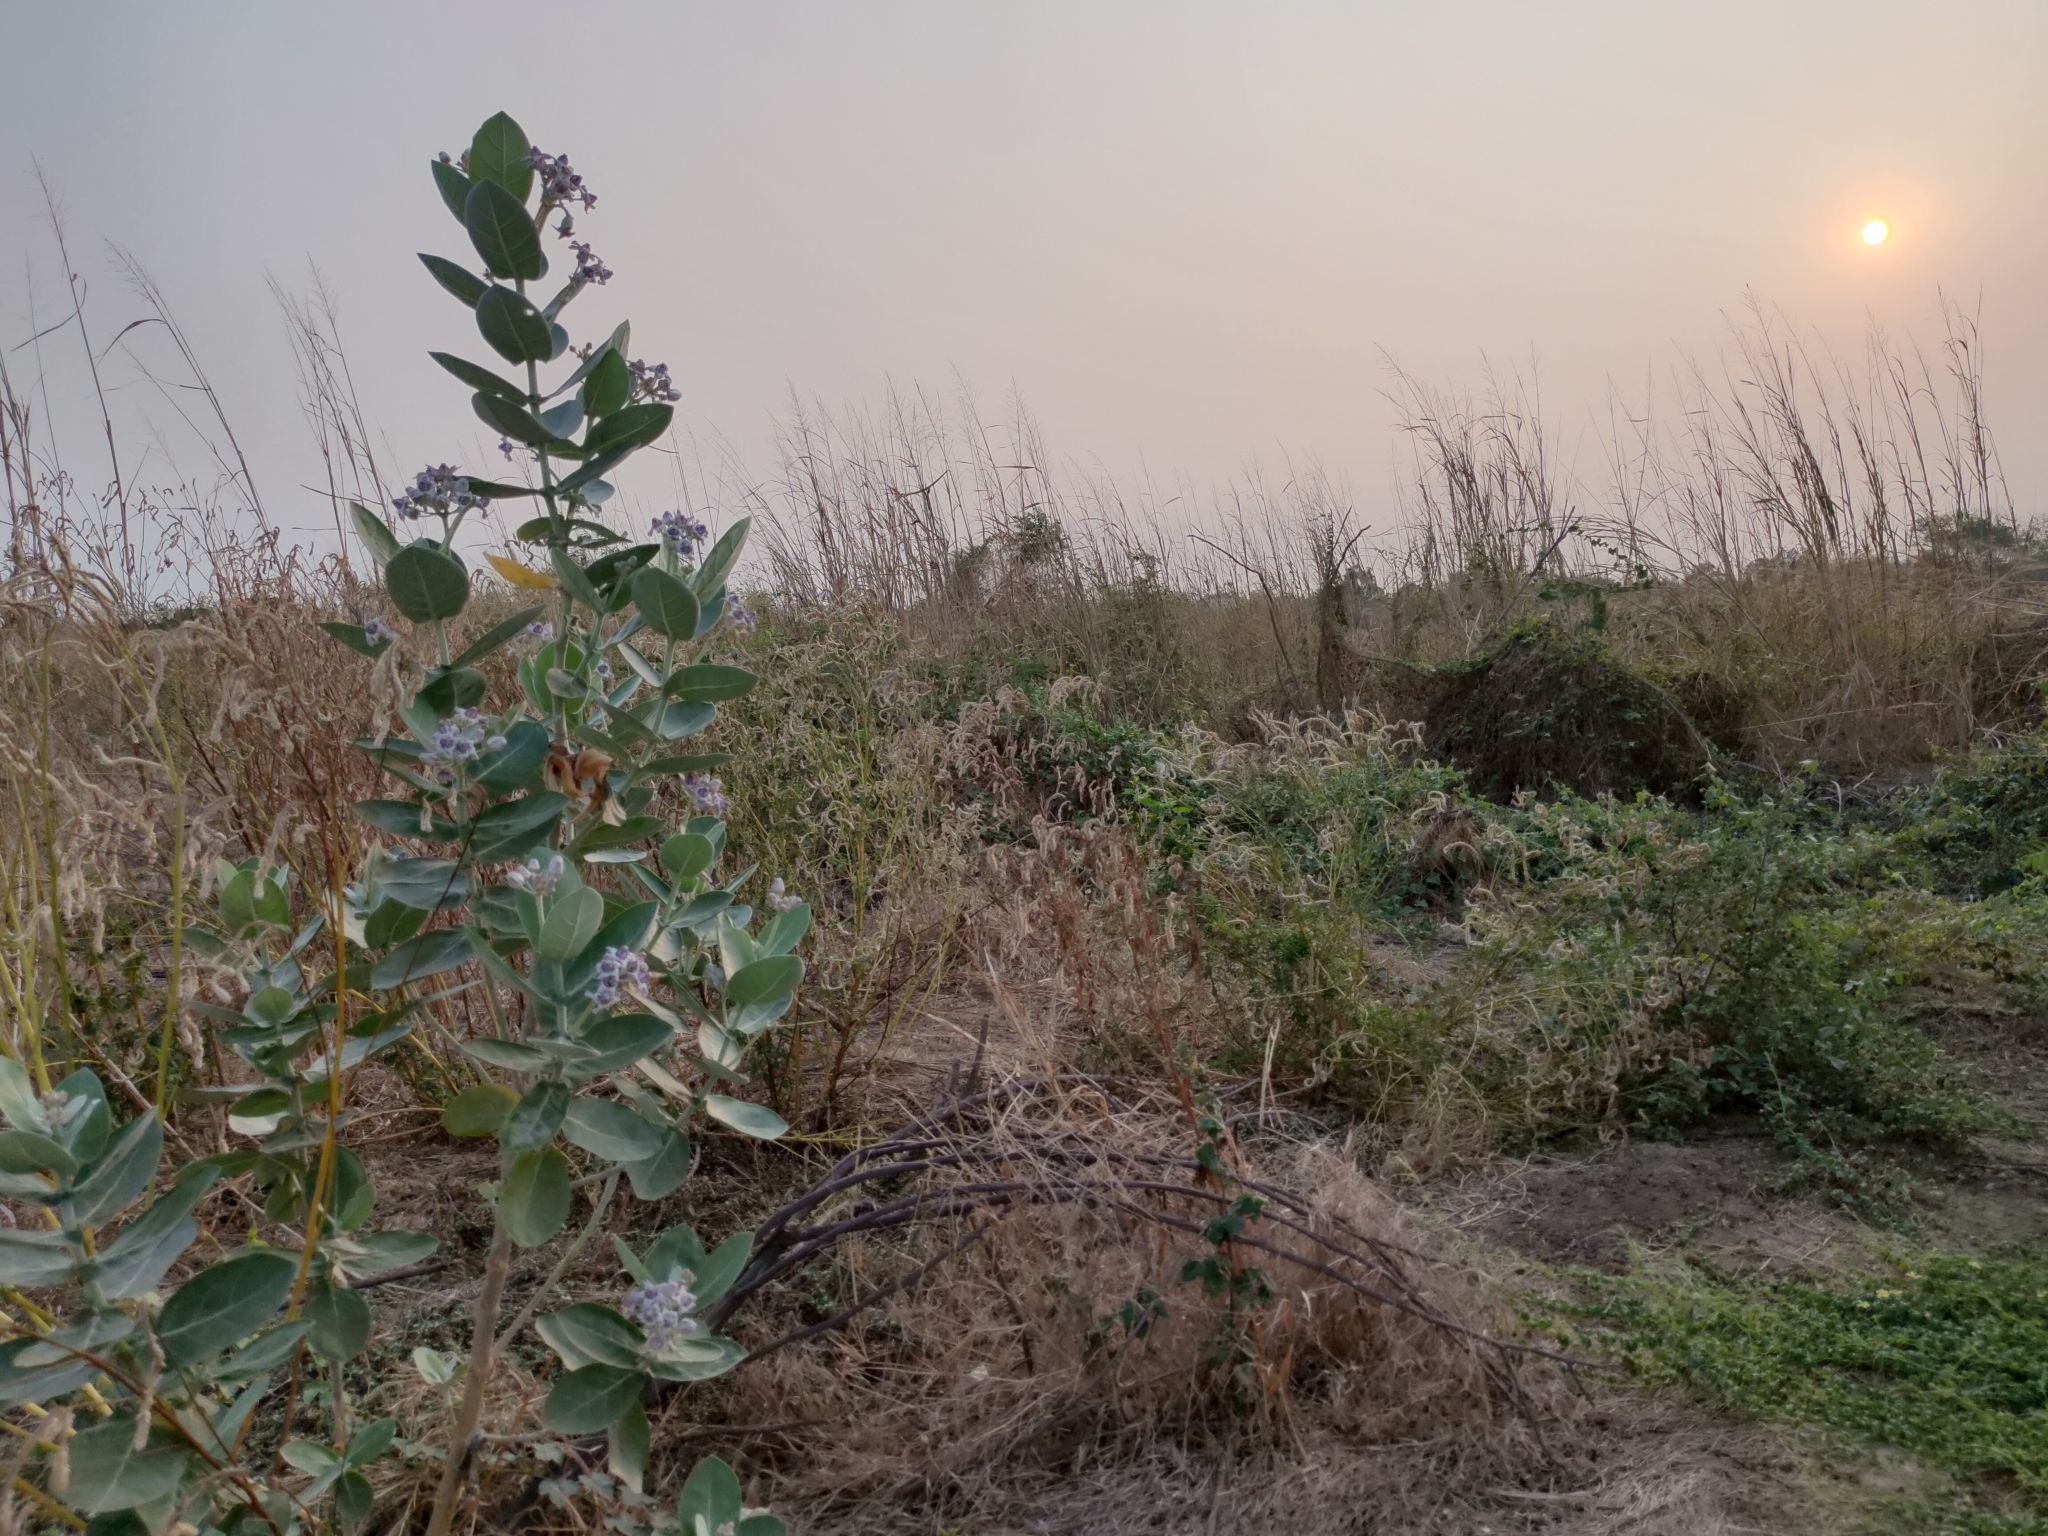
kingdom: Plantae
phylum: Tracheophyta
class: Magnoliopsida
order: Gentianales
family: Apocynaceae
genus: Calotropis
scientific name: Calotropis gigantea
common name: Crown flower
